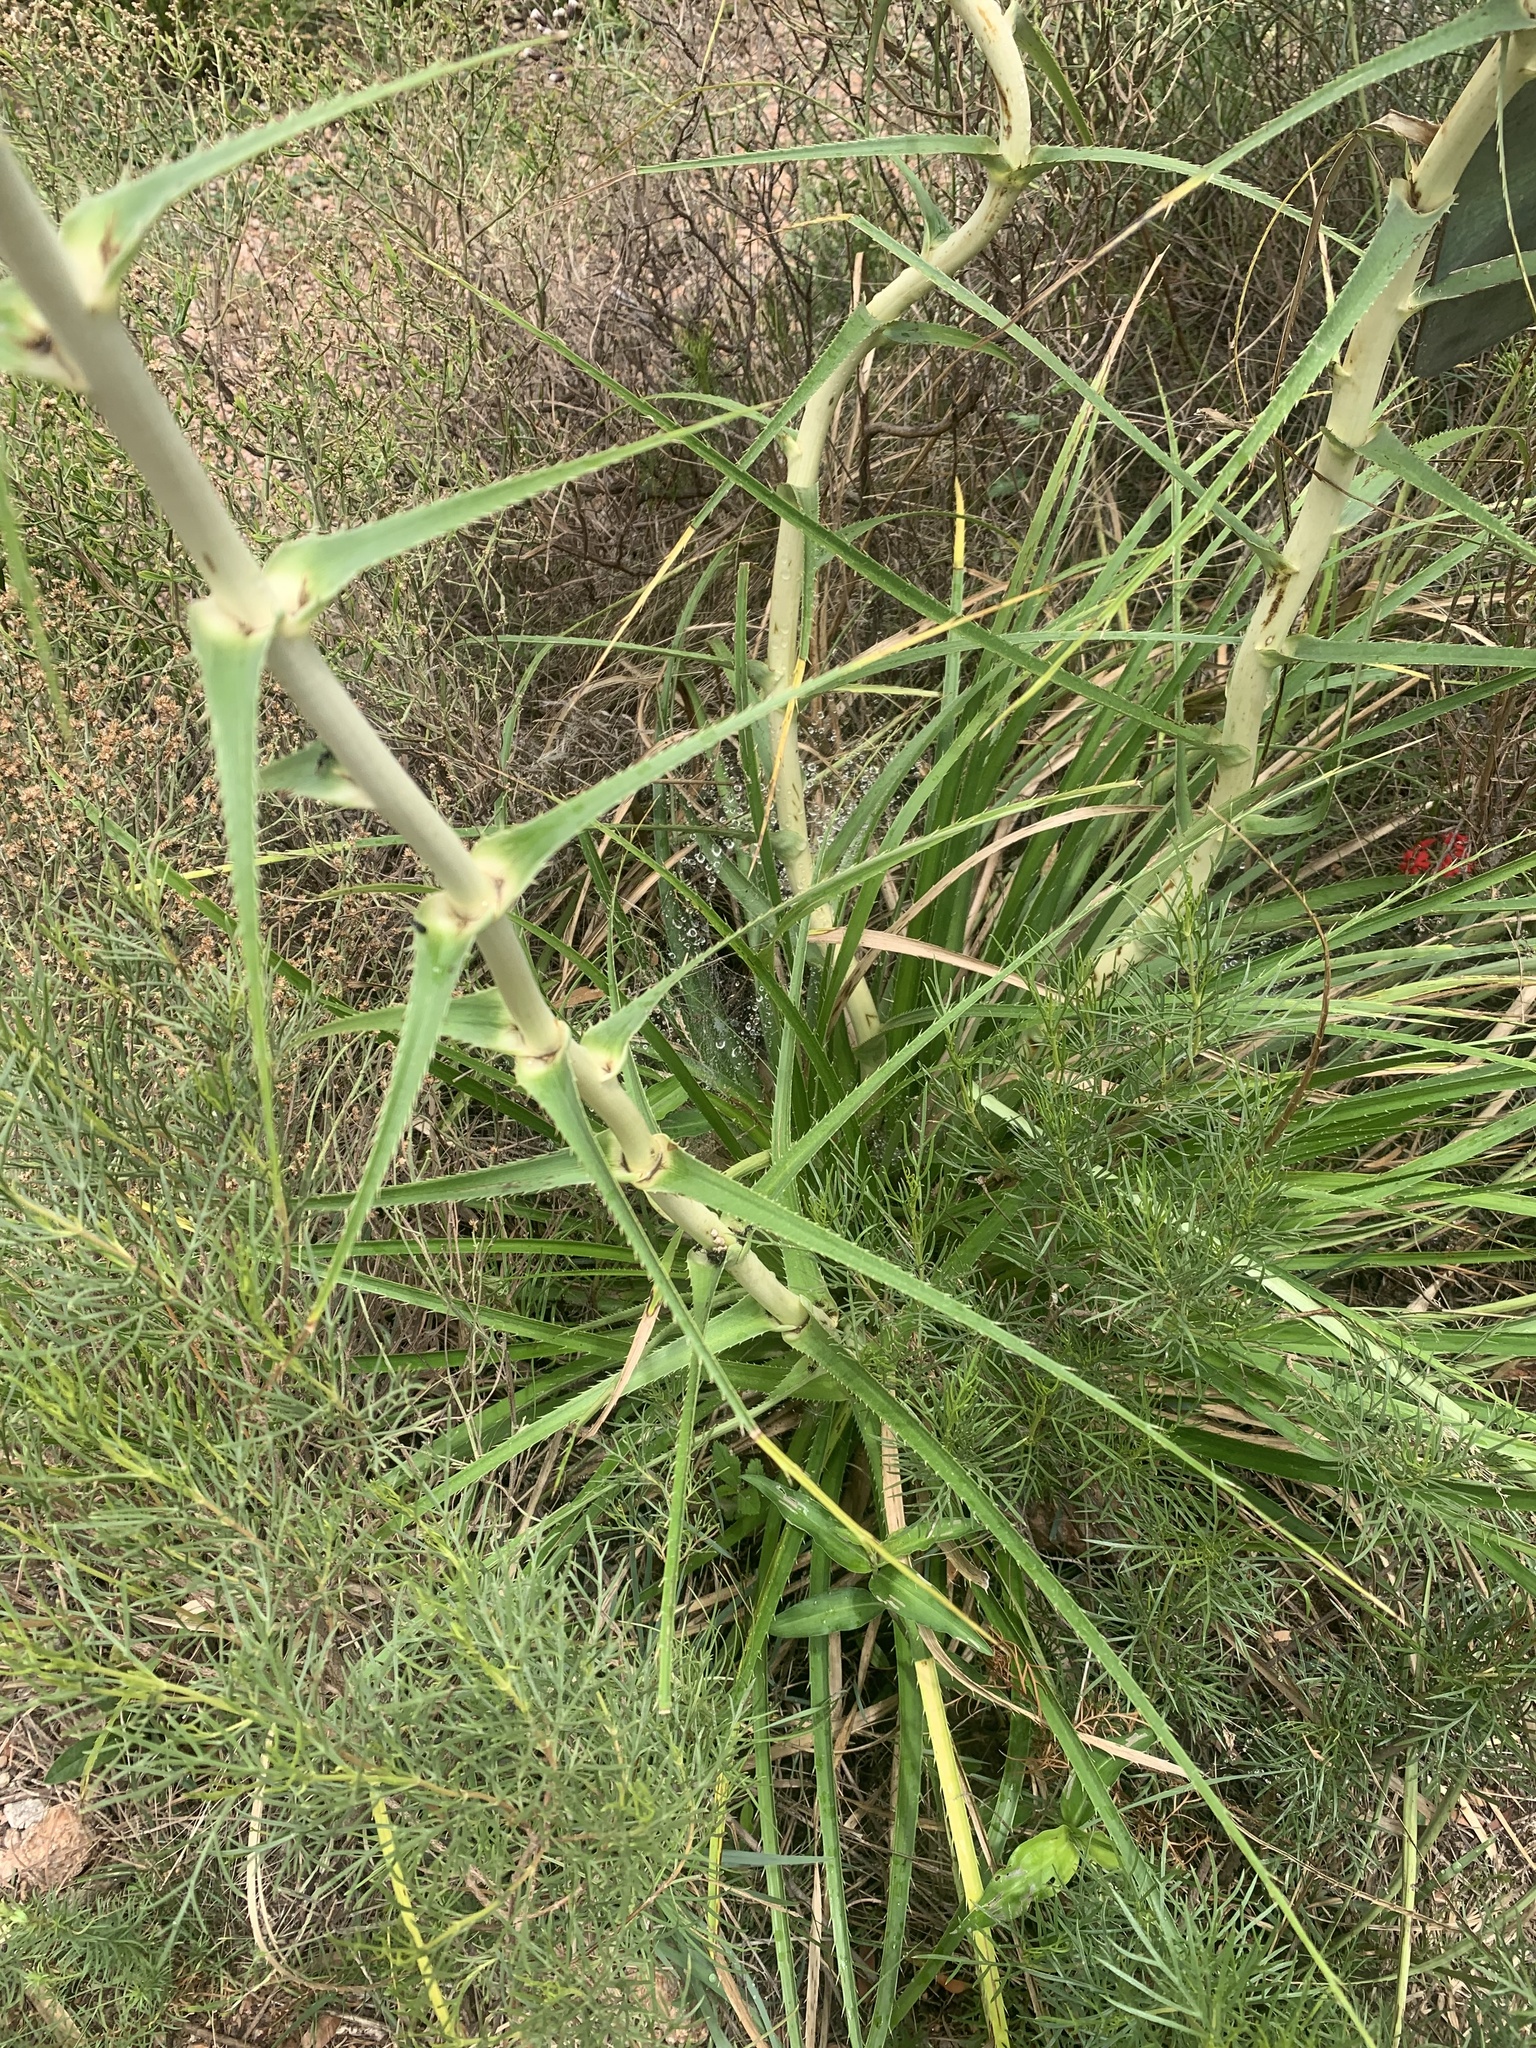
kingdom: Plantae
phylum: Tracheophyta
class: Magnoliopsida
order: Apiales
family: Apiaceae
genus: Eryngium
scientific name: Eryngium horridum
